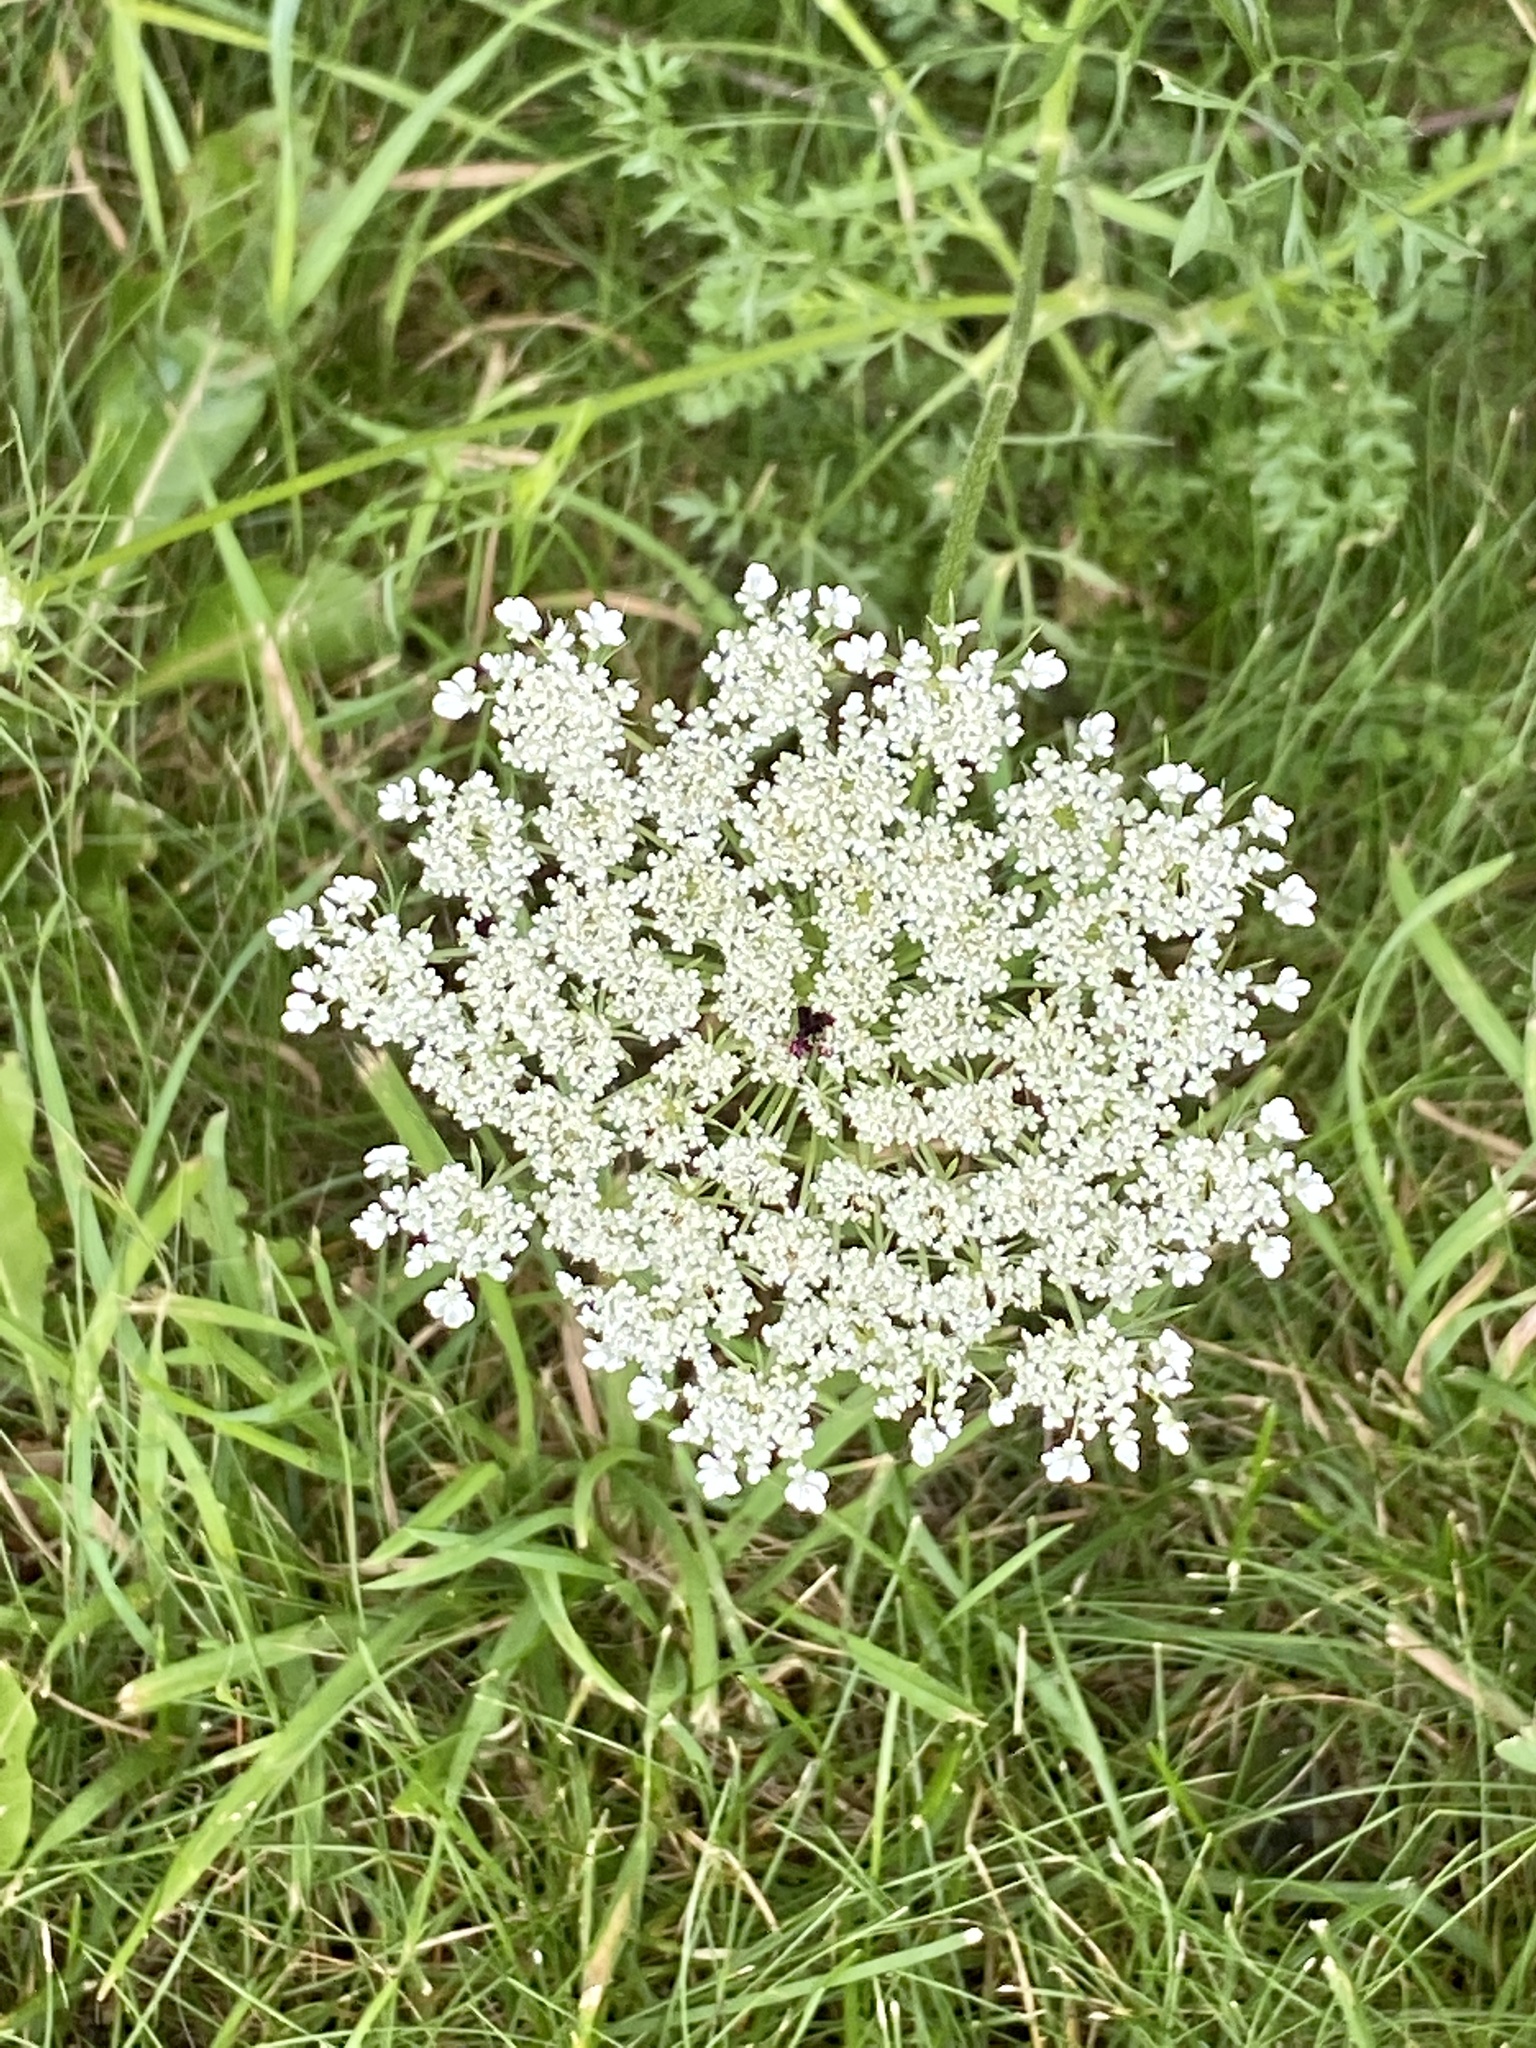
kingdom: Plantae
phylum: Tracheophyta
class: Magnoliopsida
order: Apiales
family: Apiaceae
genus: Daucus
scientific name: Daucus carota
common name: Wild carrot
